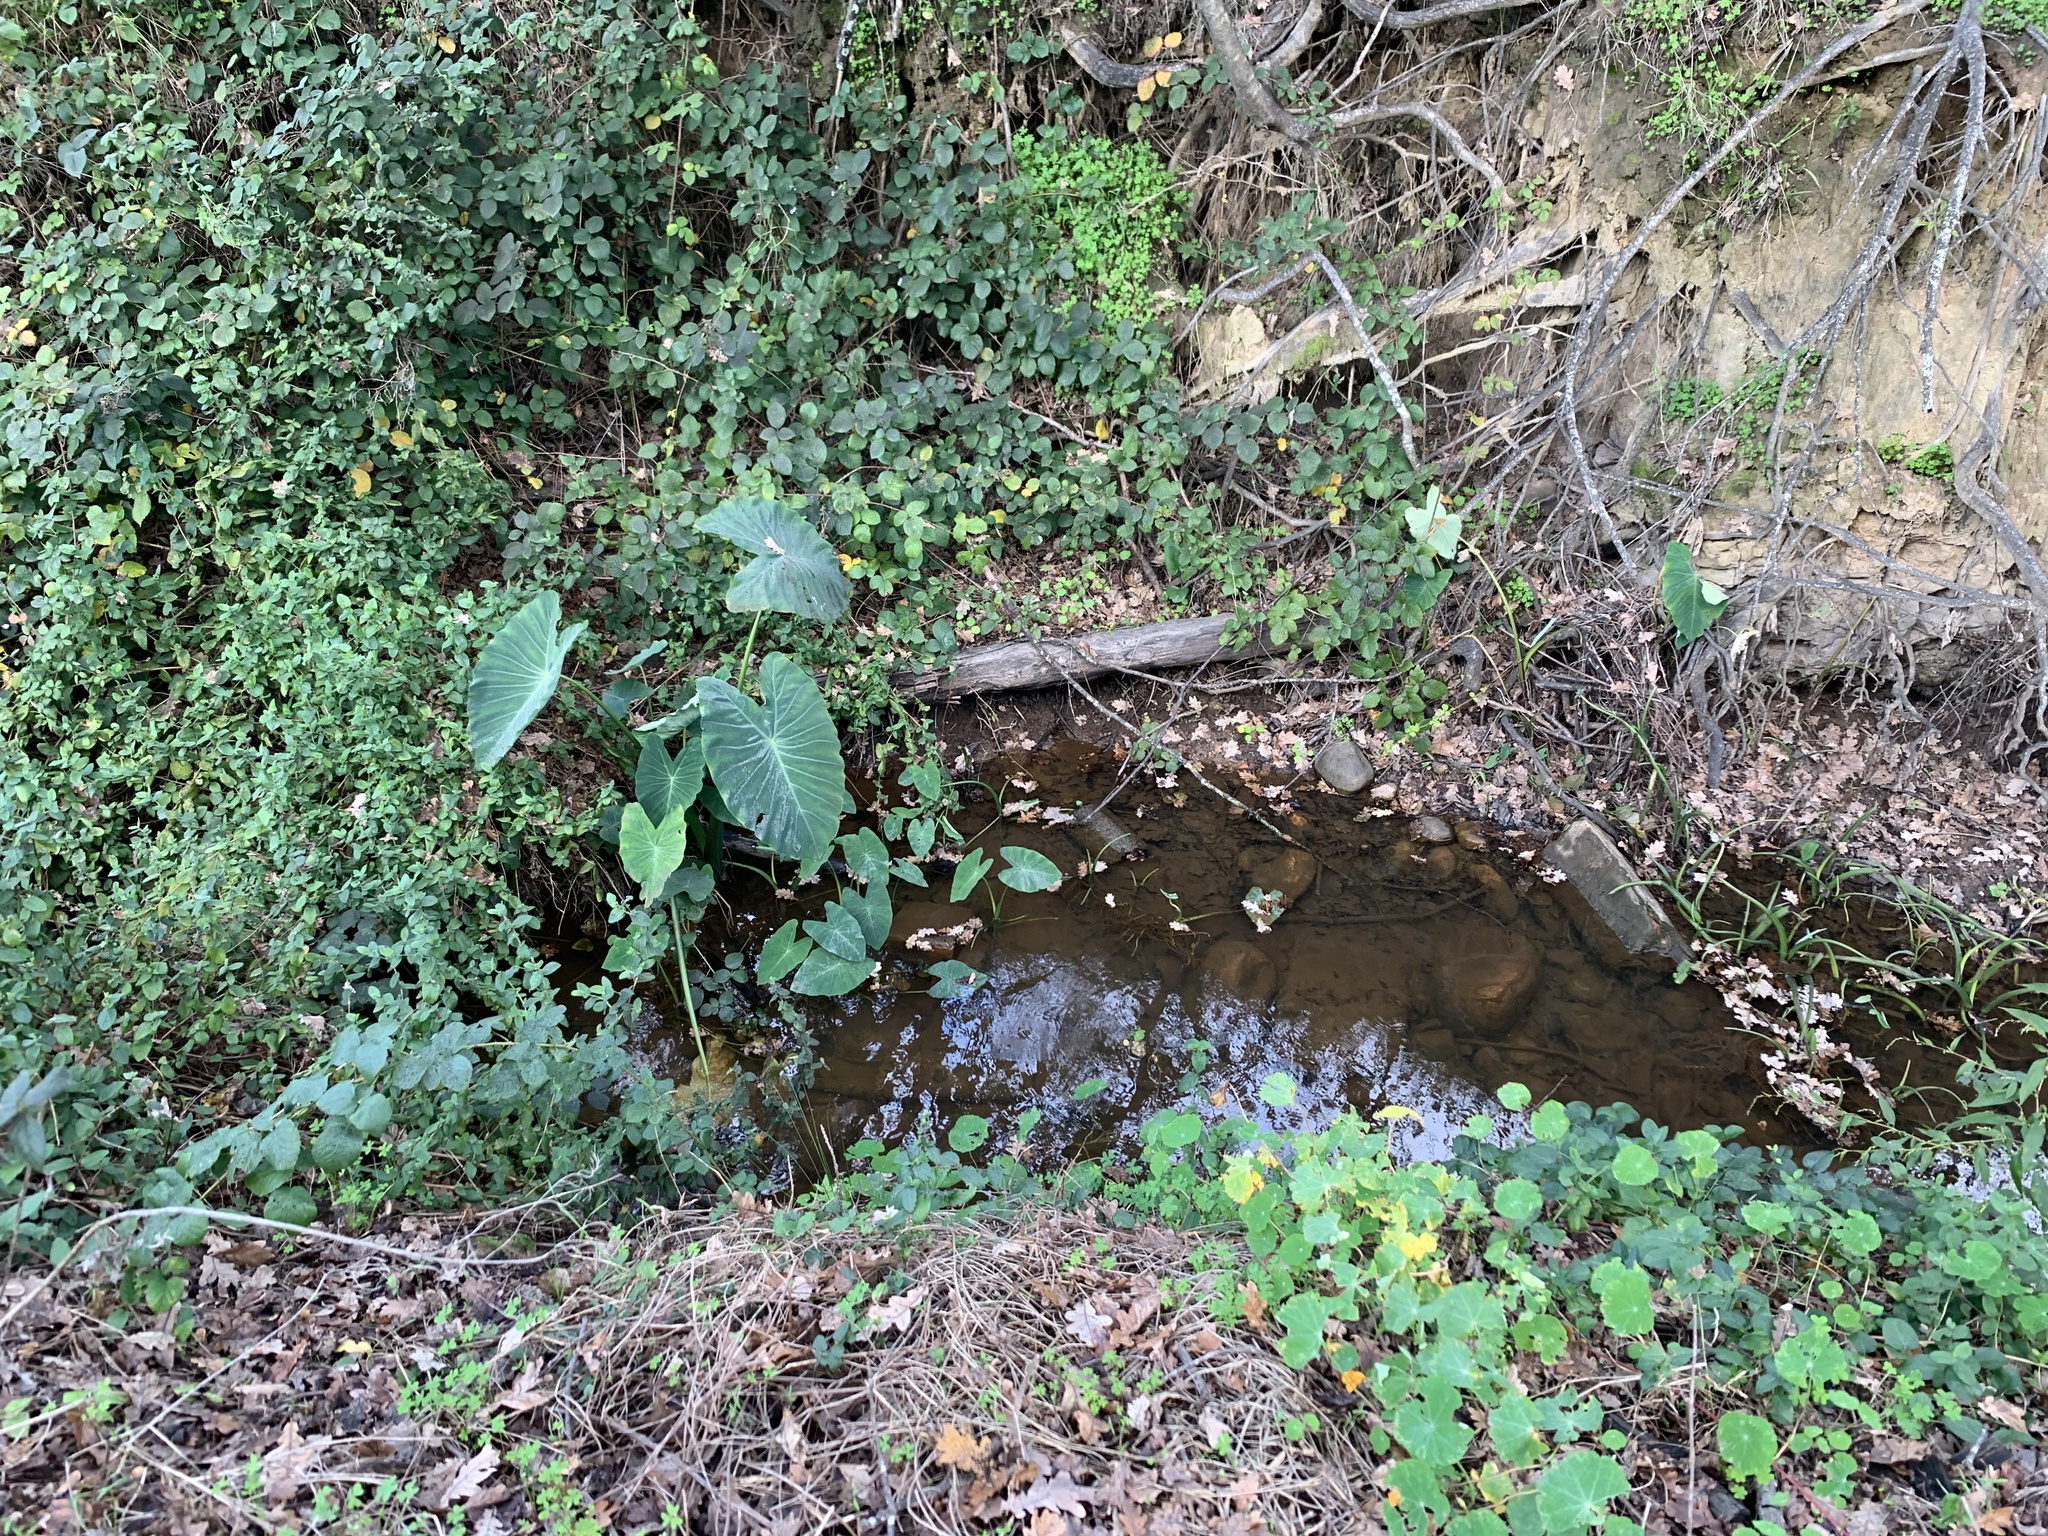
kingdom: Plantae
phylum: Tracheophyta
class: Liliopsida
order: Alismatales
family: Araceae
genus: Colocasia
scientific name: Colocasia esculenta
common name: Taro
